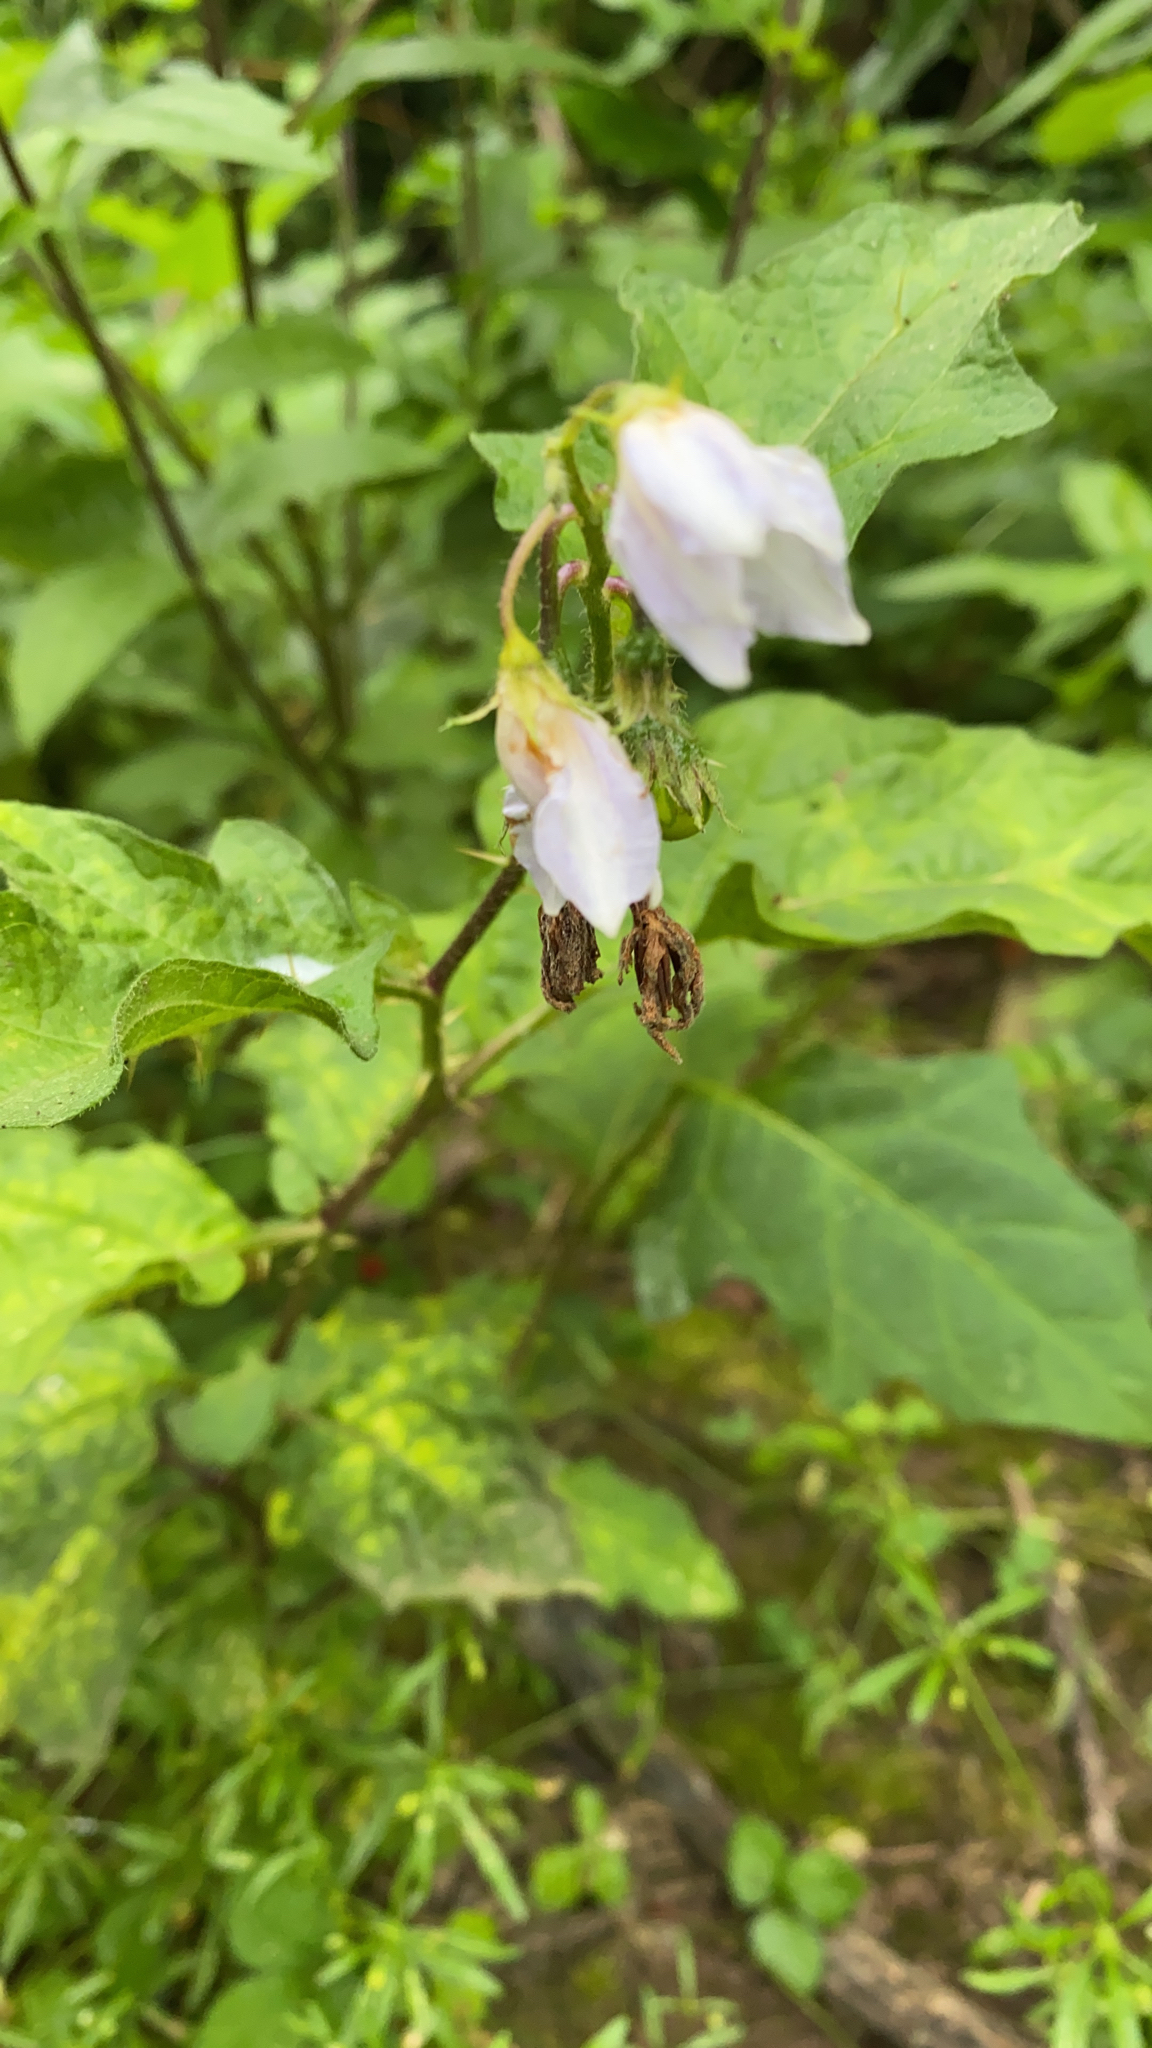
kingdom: Plantae
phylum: Tracheophyta
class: Magnoliopsida
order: Solanales
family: Solanaceae
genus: Solanum
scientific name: Solanum carolinense
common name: Horse-nettle
